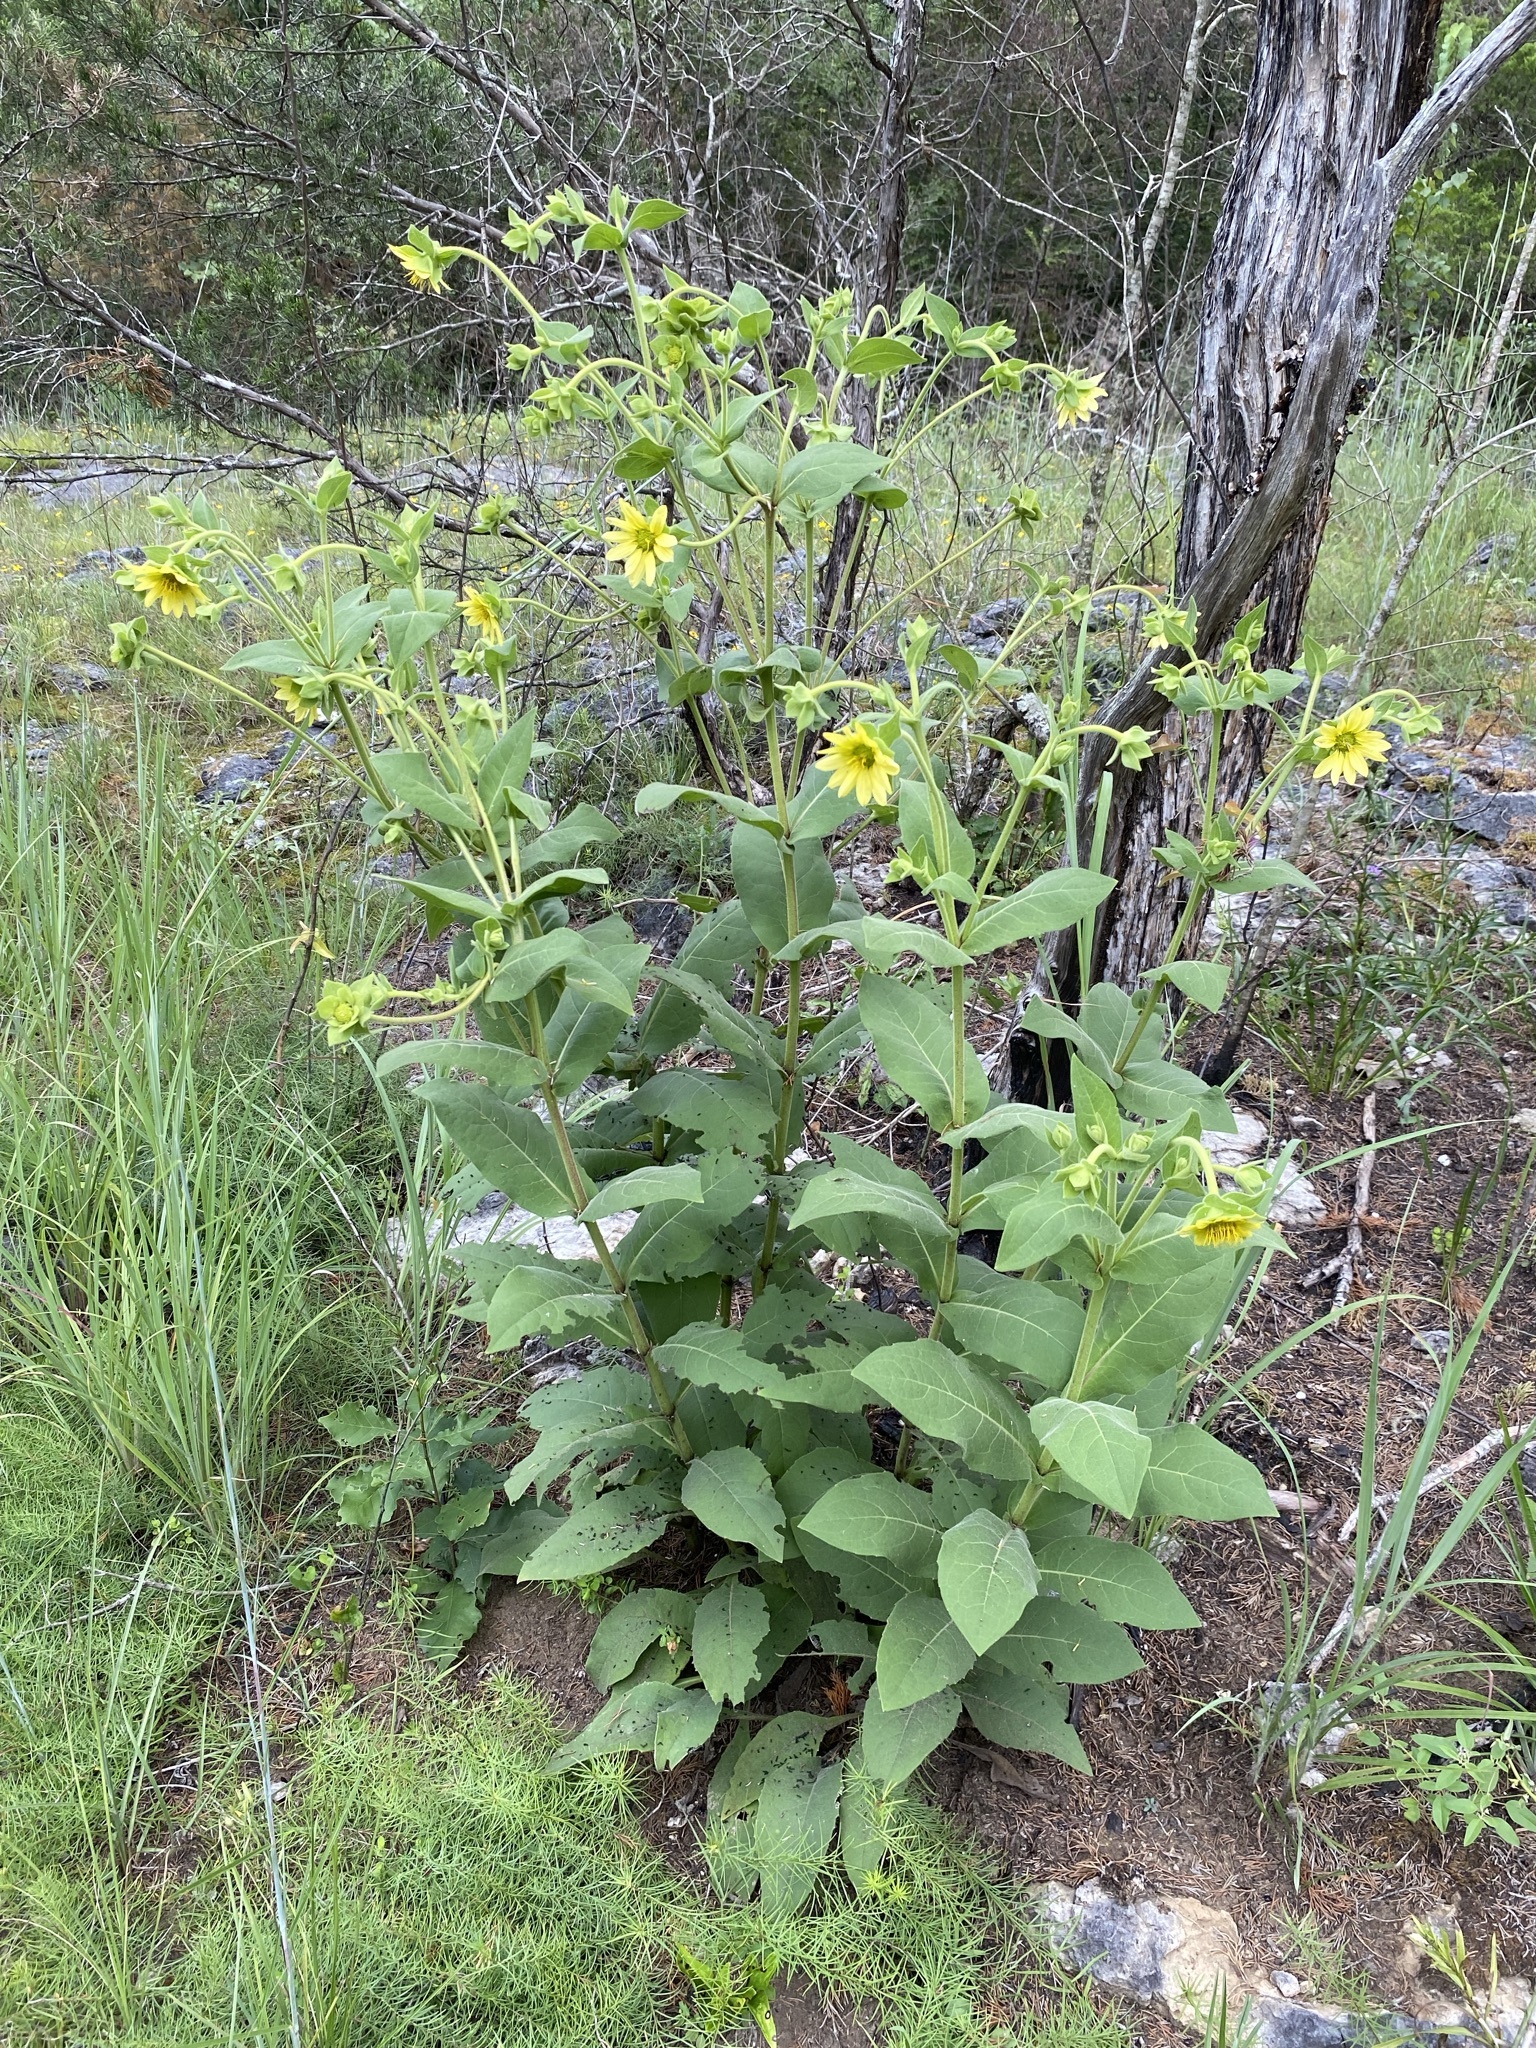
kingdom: Plantae
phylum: Tracheophyta
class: Magnoliopsida
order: Asterales
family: Asteraceae
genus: Silphium
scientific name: Silphium glutinosum
